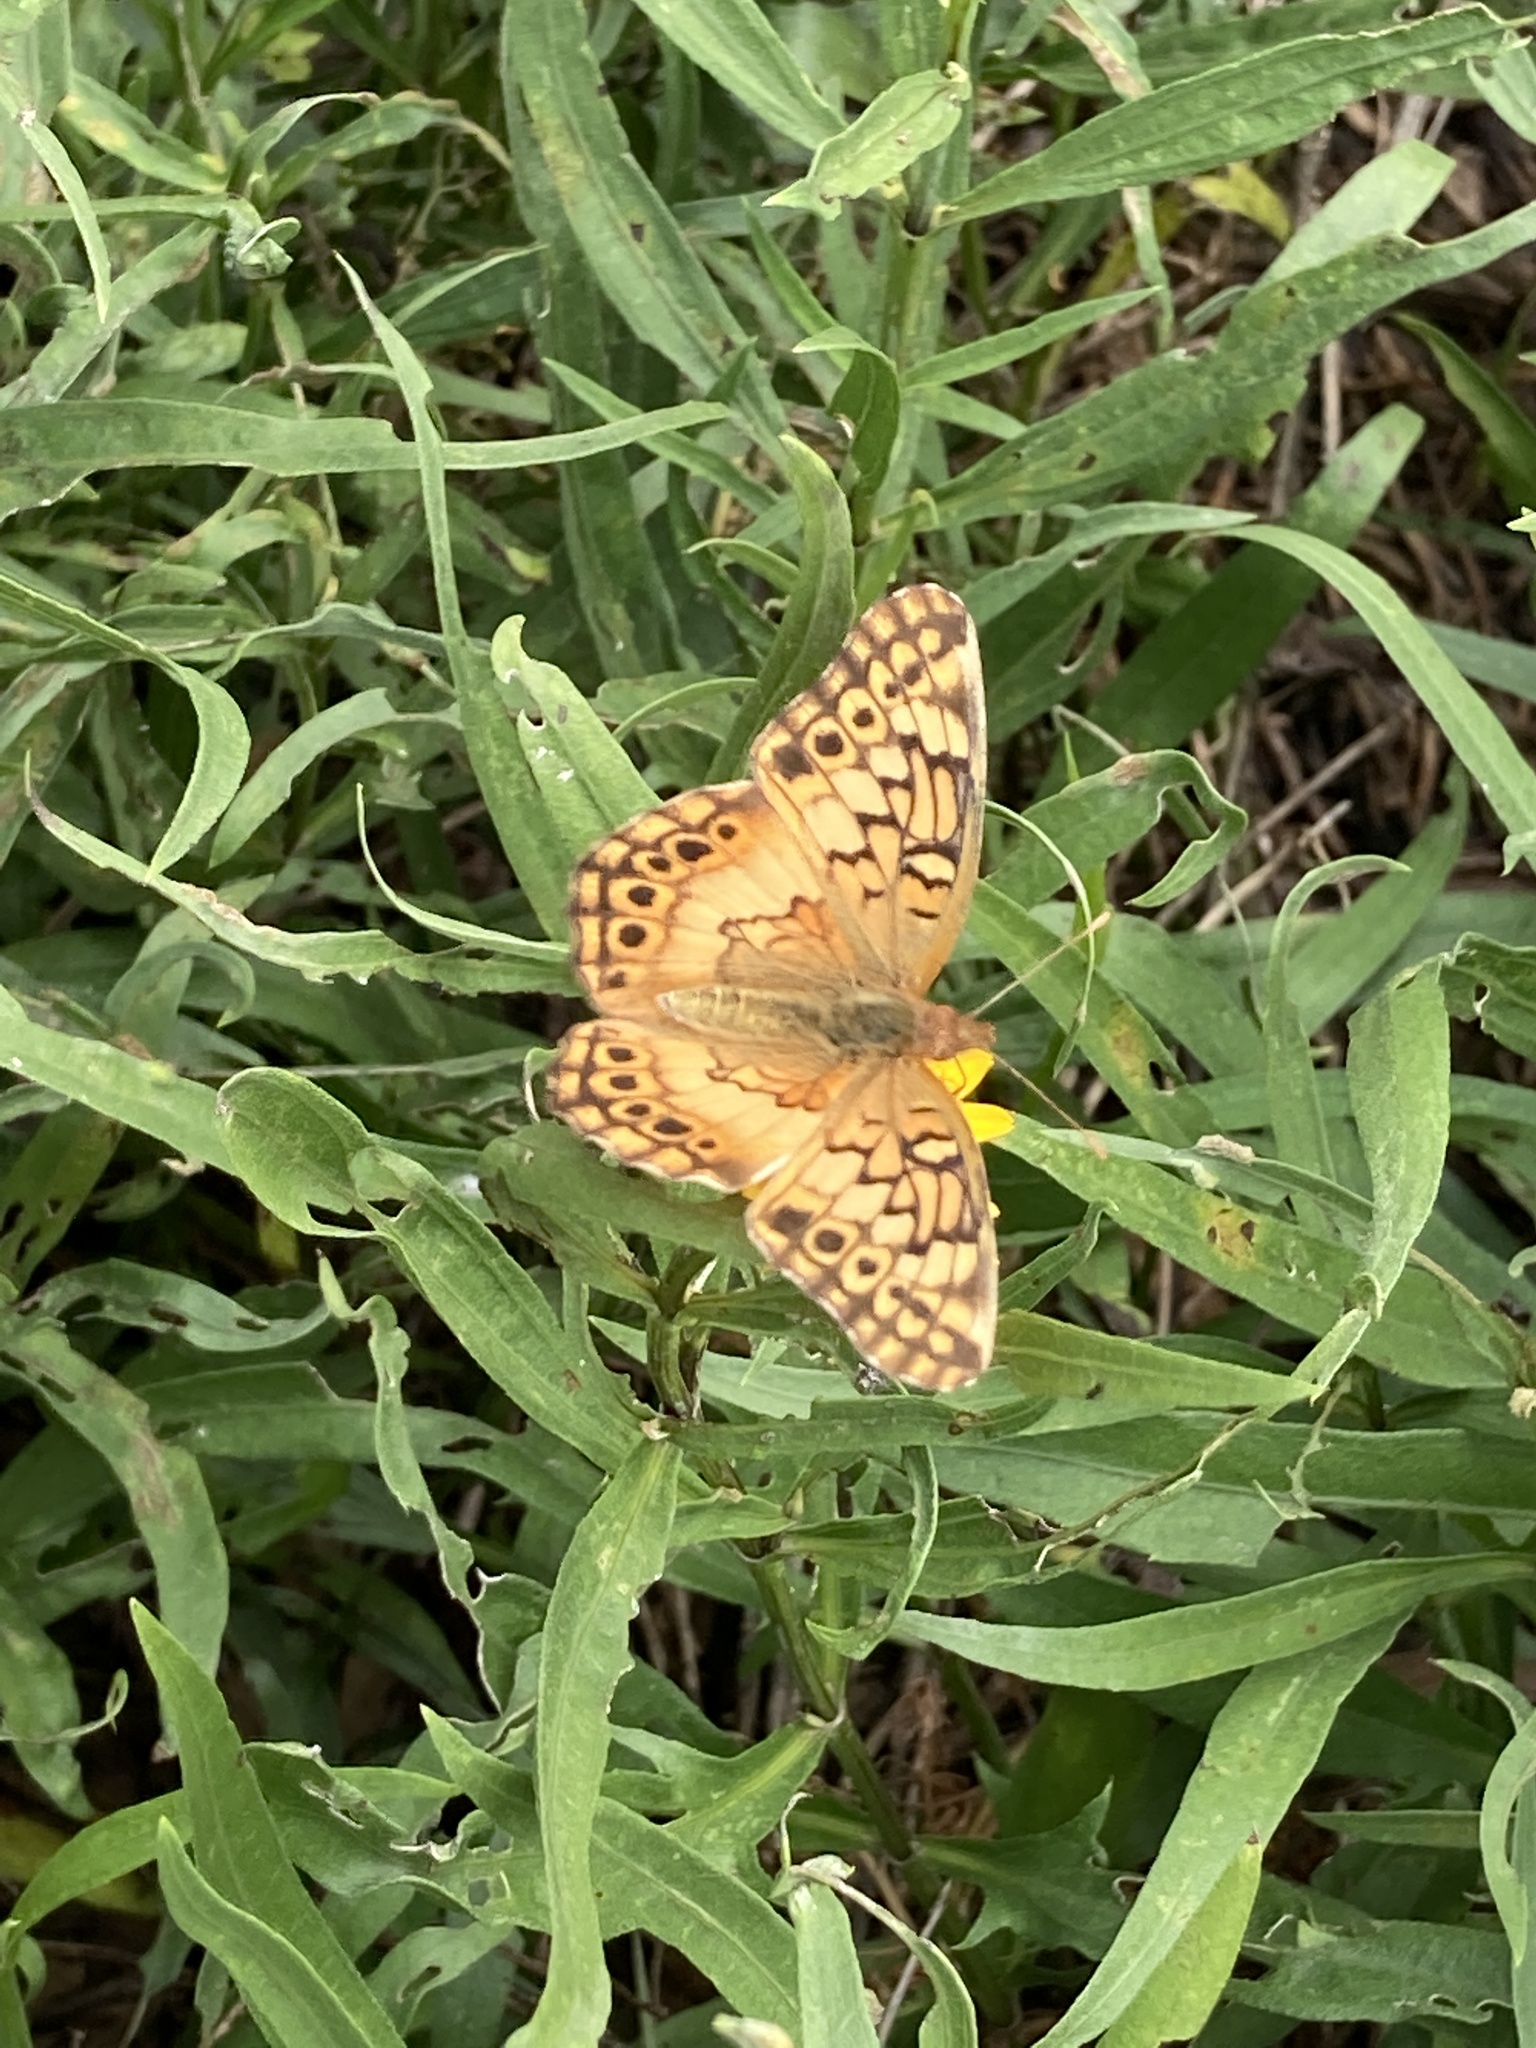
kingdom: Animalia
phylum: Arthropoda
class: Insecta
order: Lepidoptera
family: Nymphalidae
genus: Euptoieta
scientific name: Euptoieta hortensia
